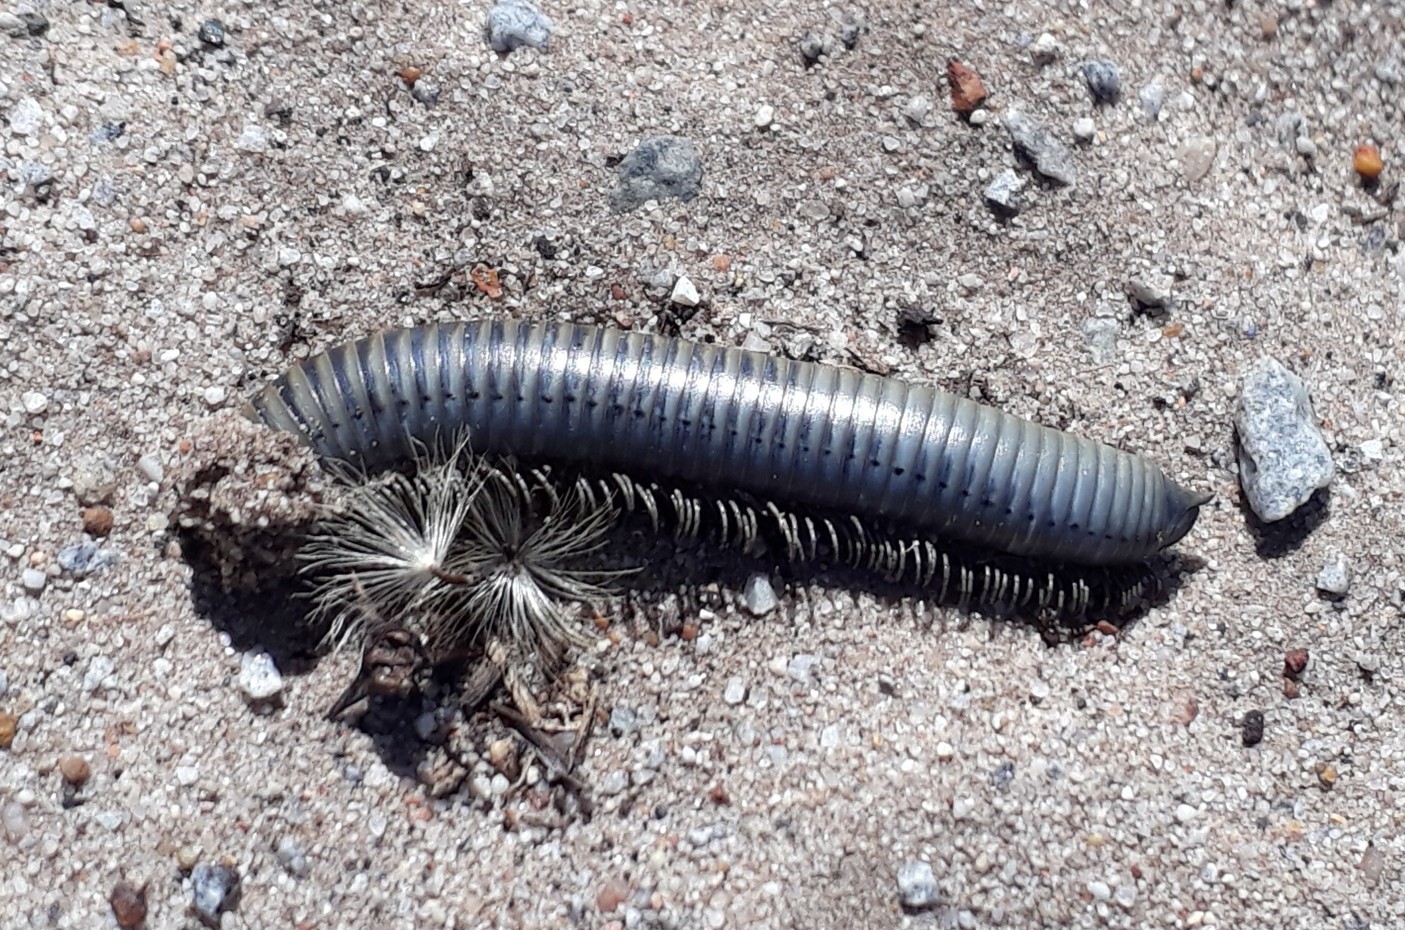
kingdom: Animalia
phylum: Arthropoda
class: Diplopoda
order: Spirostreptida
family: Harpagophoridae
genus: Harpagophora
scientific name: Harpagophora attenuata
